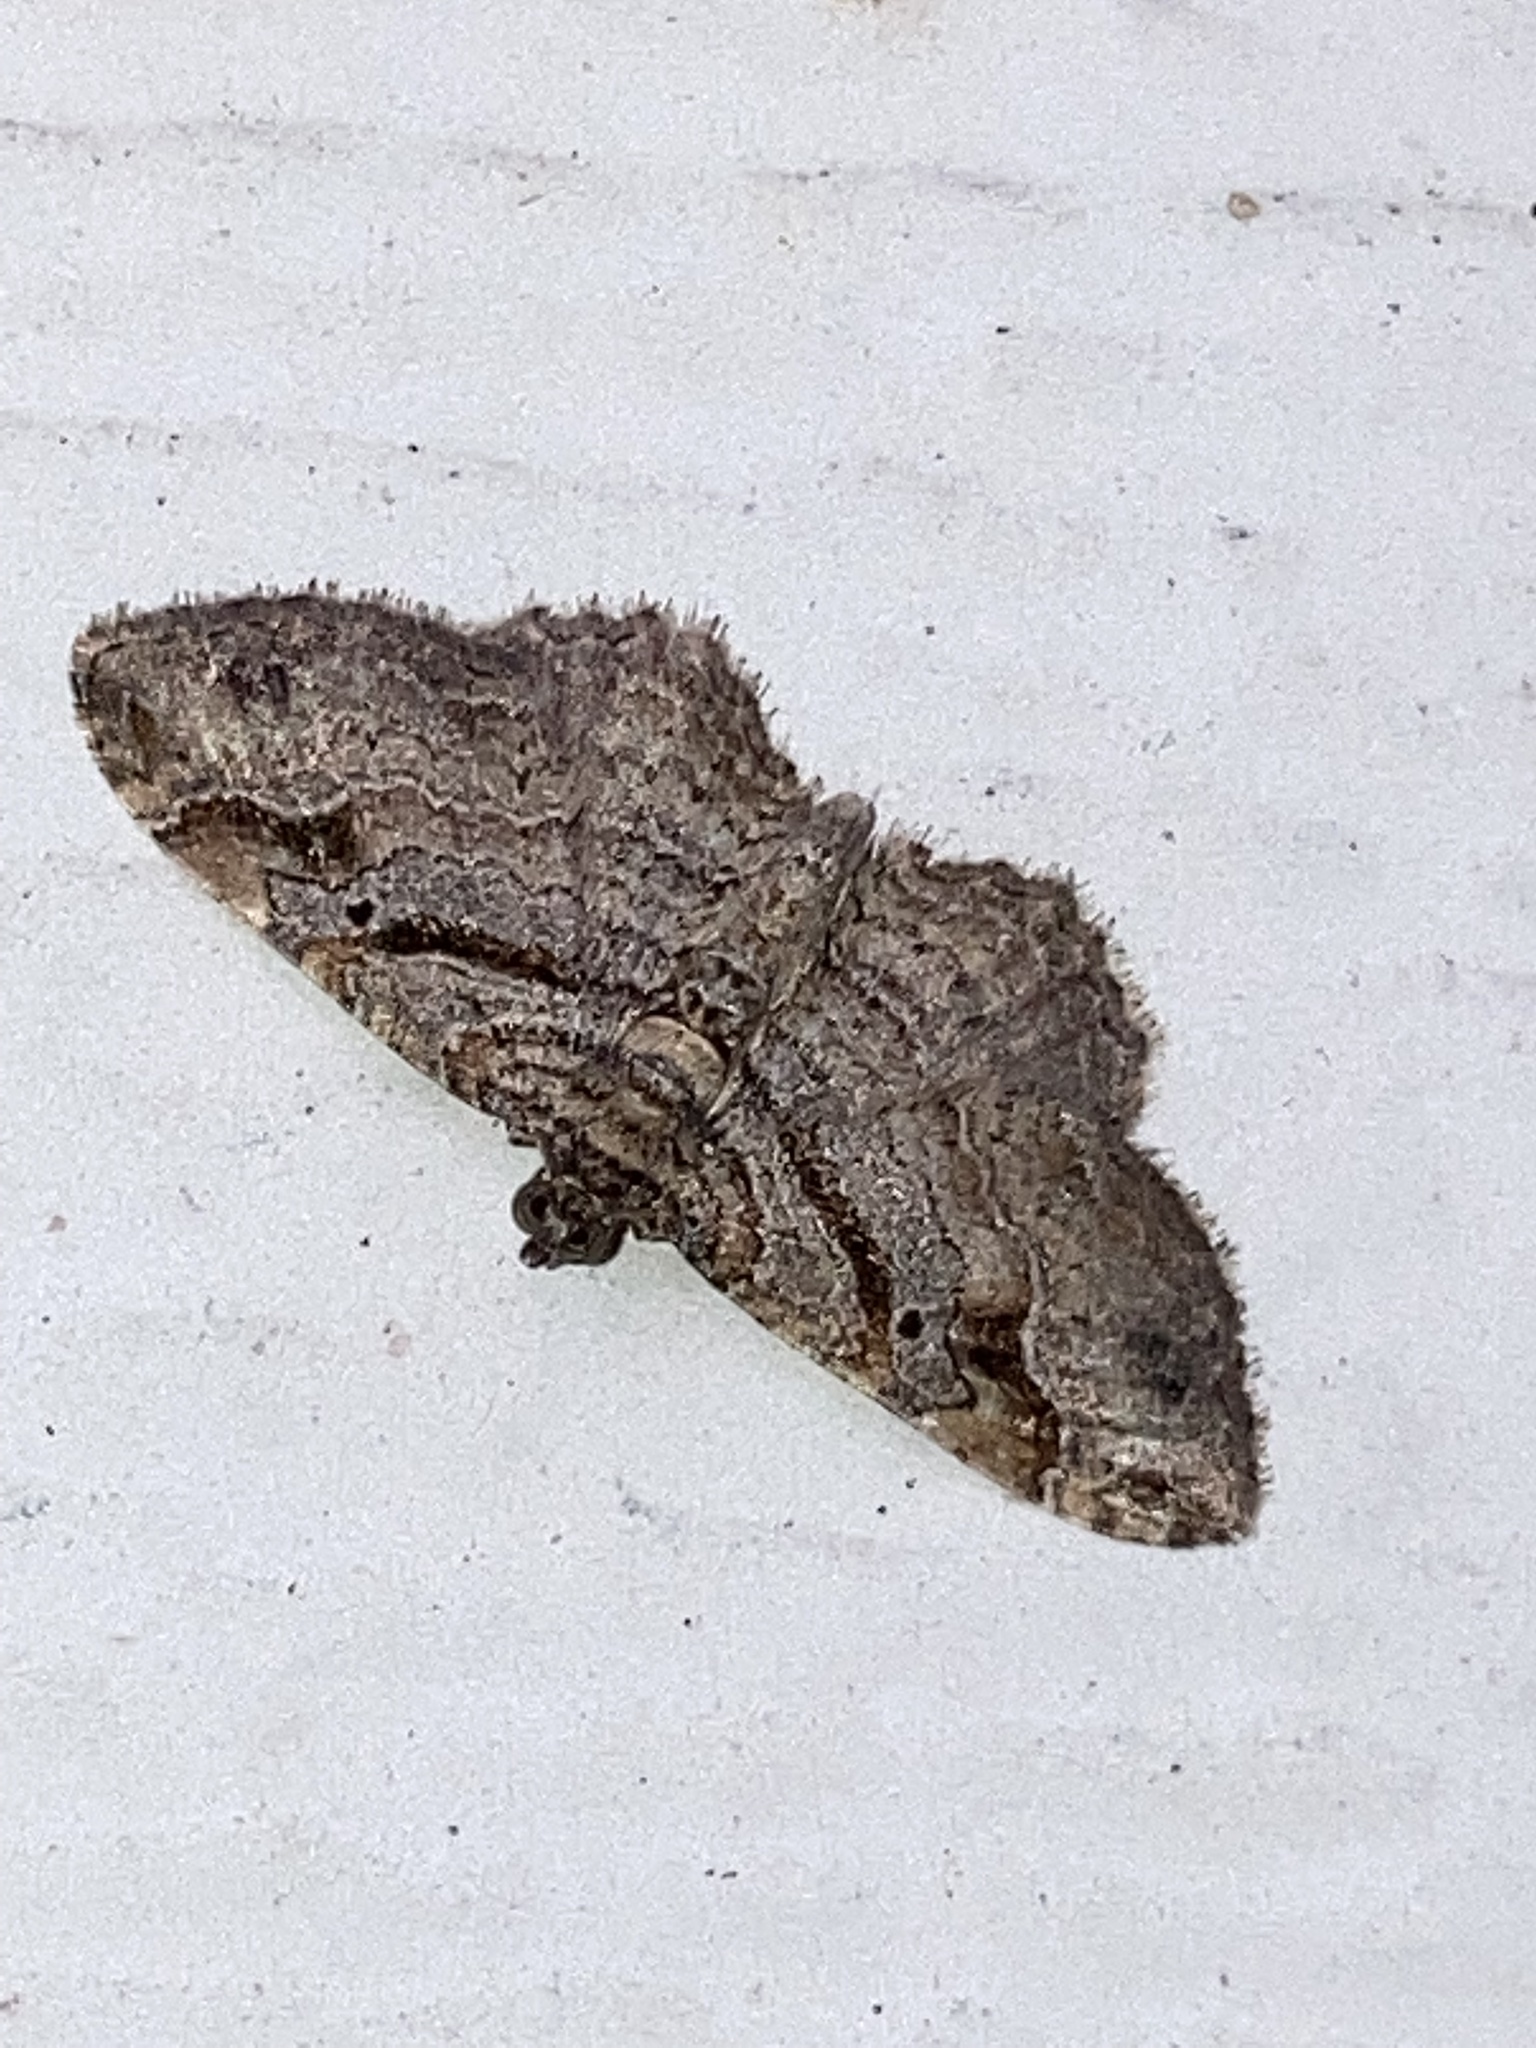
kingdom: Animalia
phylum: Arthropoda
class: Insecta
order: Lepidoptera
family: Geometridae
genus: Costaconvexa
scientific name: Costaconvexa centrostrigaria
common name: Bent-line carpet
